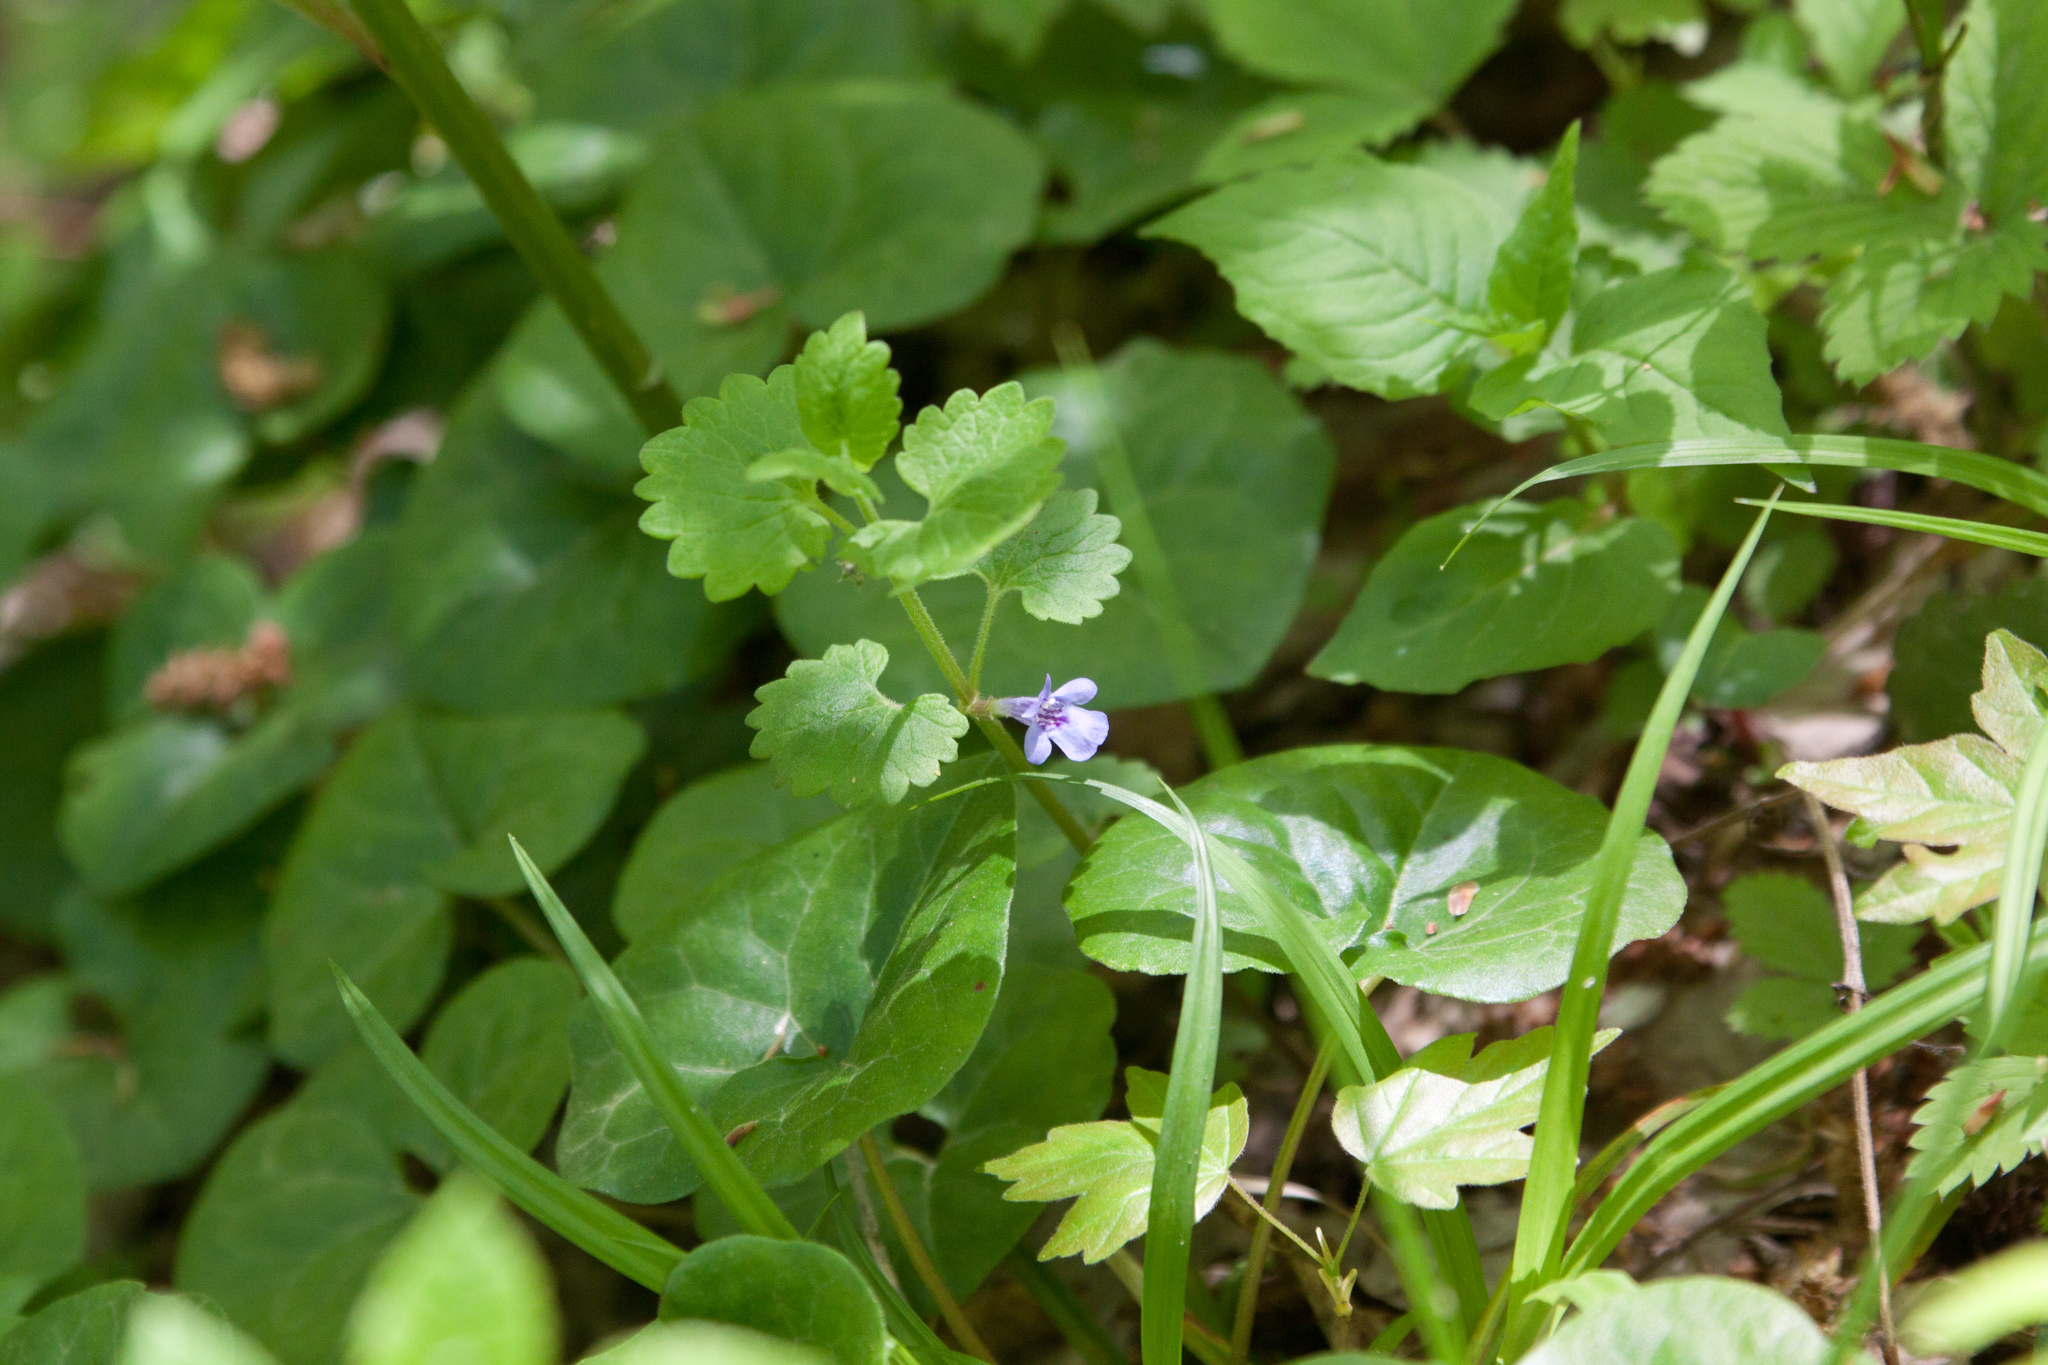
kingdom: Plantae
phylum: Tracheophyta
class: Magnoliopsida
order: Lamiales
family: Lamiaceae
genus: Glechoma
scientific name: Glechoma hederacea
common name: Ground ivy
